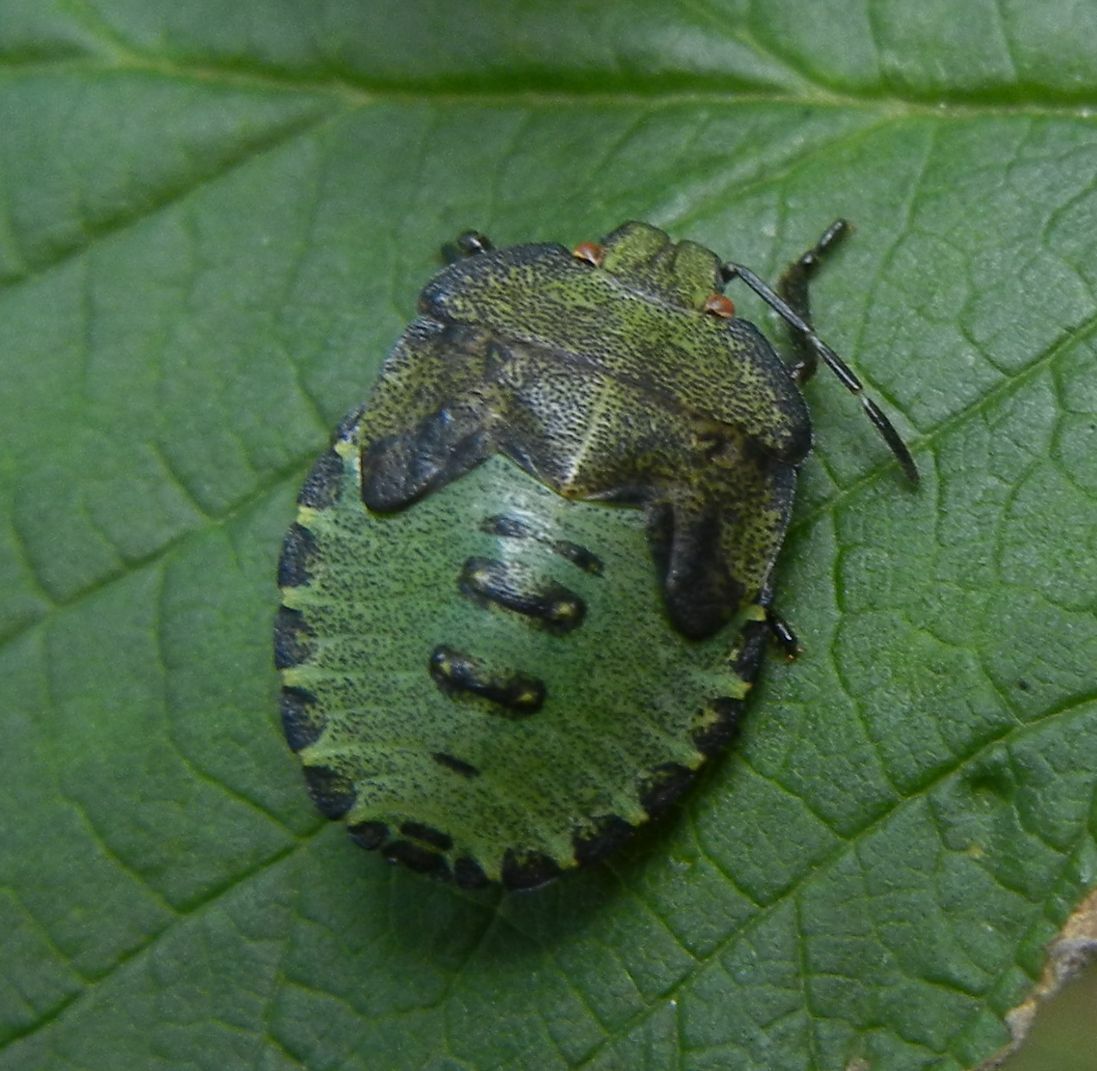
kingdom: Animalia
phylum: Arthropoda
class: Insecta
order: Hemiptera
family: Pentatomidae
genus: Palomena
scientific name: Palomena prasina
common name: Green shieldbug
